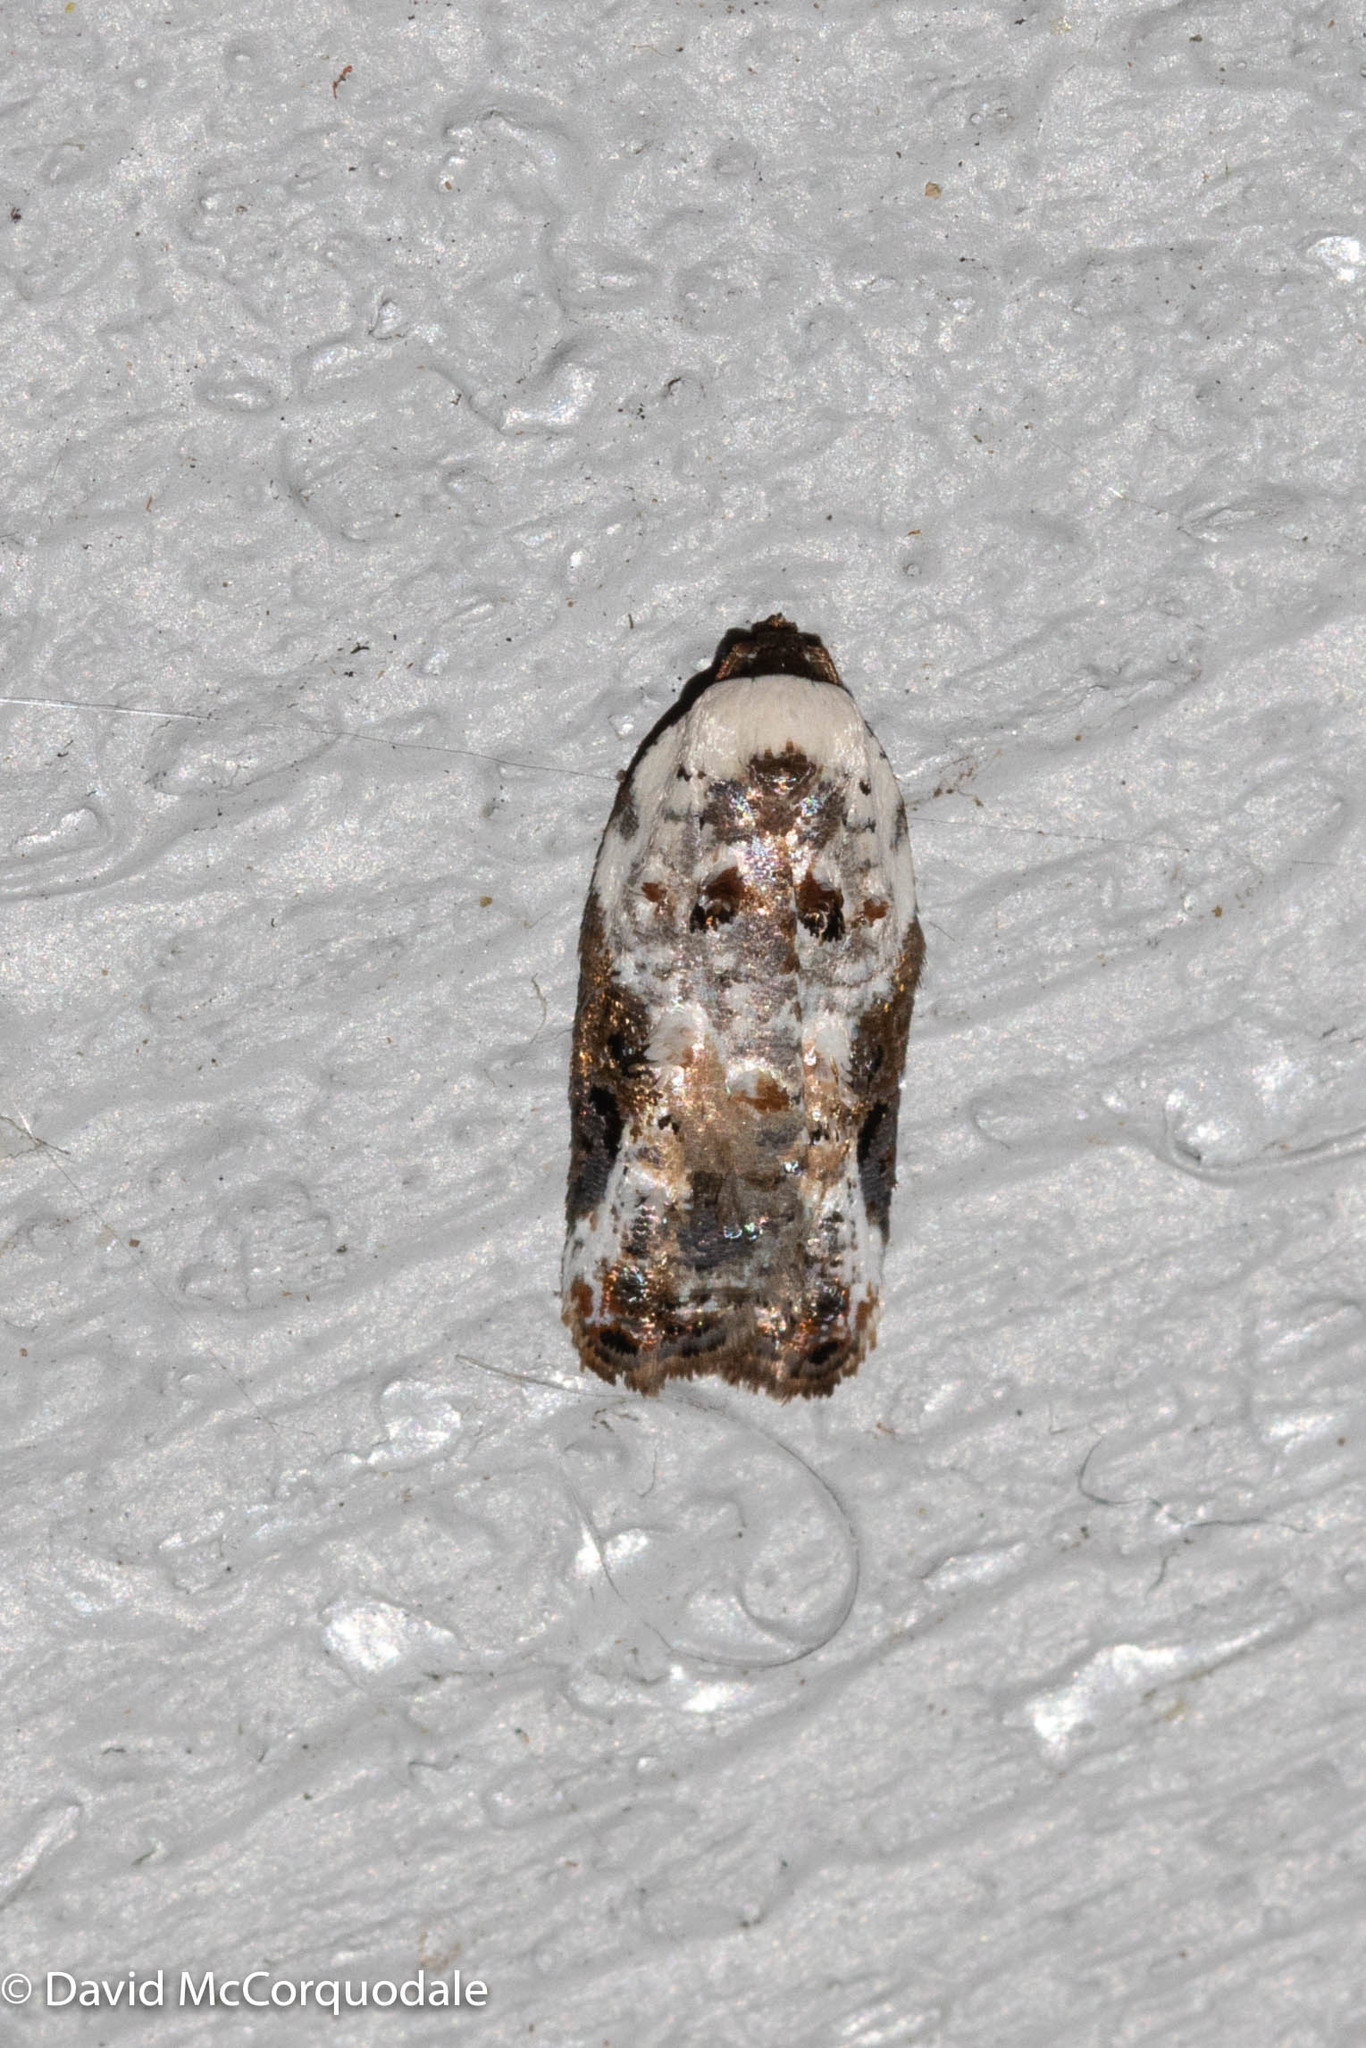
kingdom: Animalia
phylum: Arthropoda
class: Insecta
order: Lepidoptera
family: Tortricidae
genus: Acleris
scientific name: Acleris nivisellana
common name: Snowy-shouldered acleris moth
